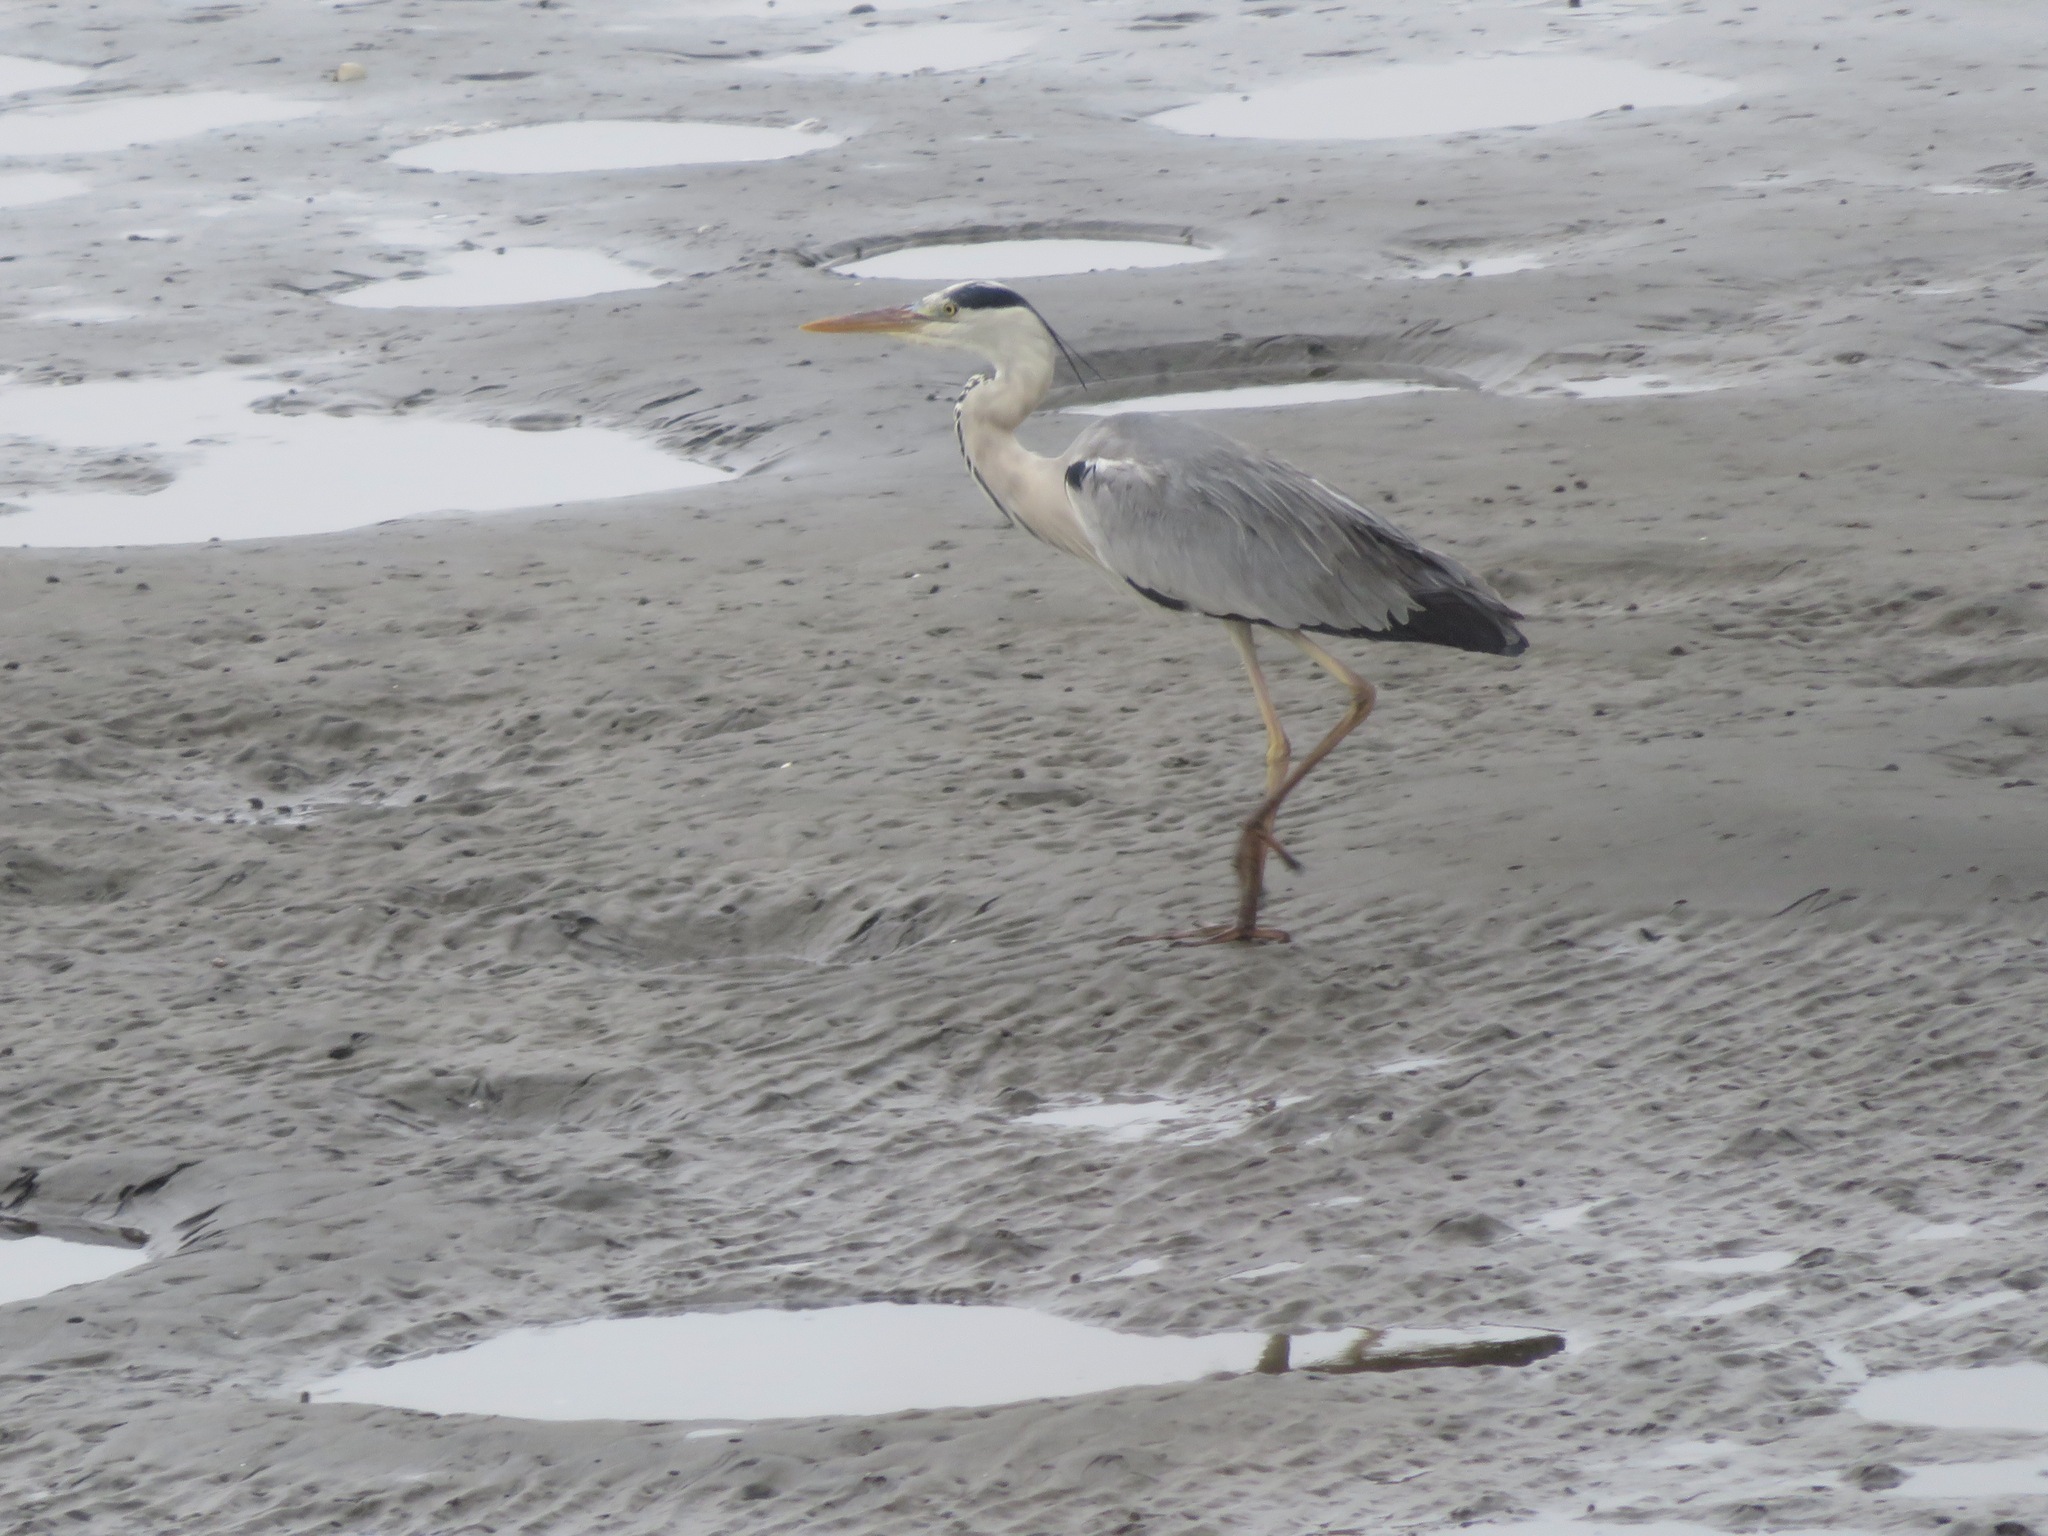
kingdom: Animalia
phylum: Chordata
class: Aves
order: Pelecaniformes
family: Ardeidae
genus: Ardea
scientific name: Ardea cinerea
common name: Grey heron
